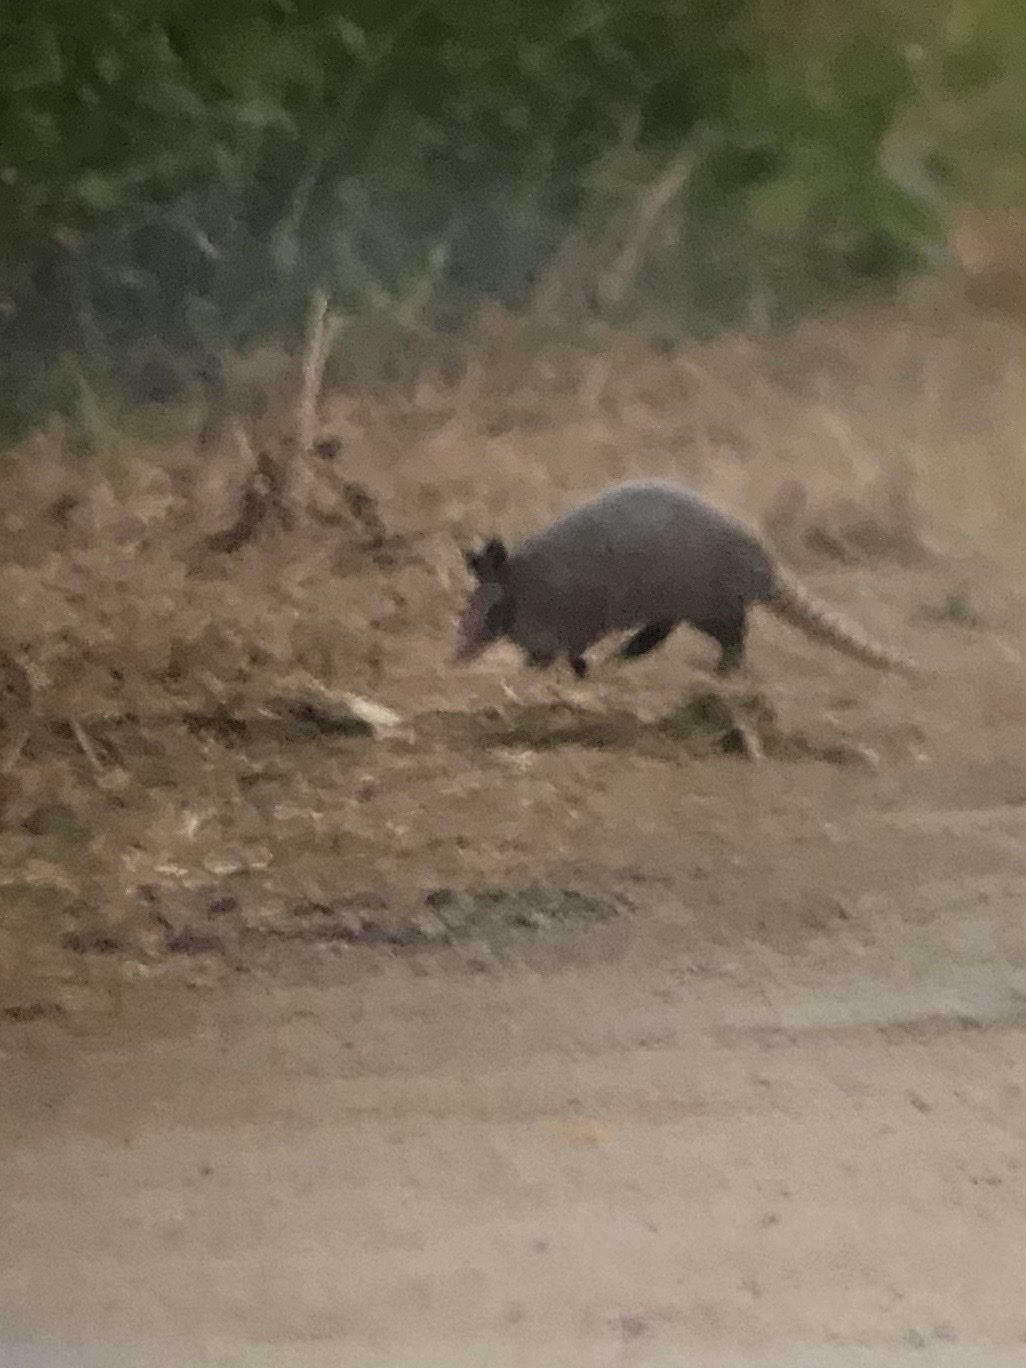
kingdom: Animalia
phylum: Chordata
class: Mammalia
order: Cingulata
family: Dasypodidae
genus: Dasypus
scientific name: Dasypus novemcinctus
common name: Nine-banded armadillo
